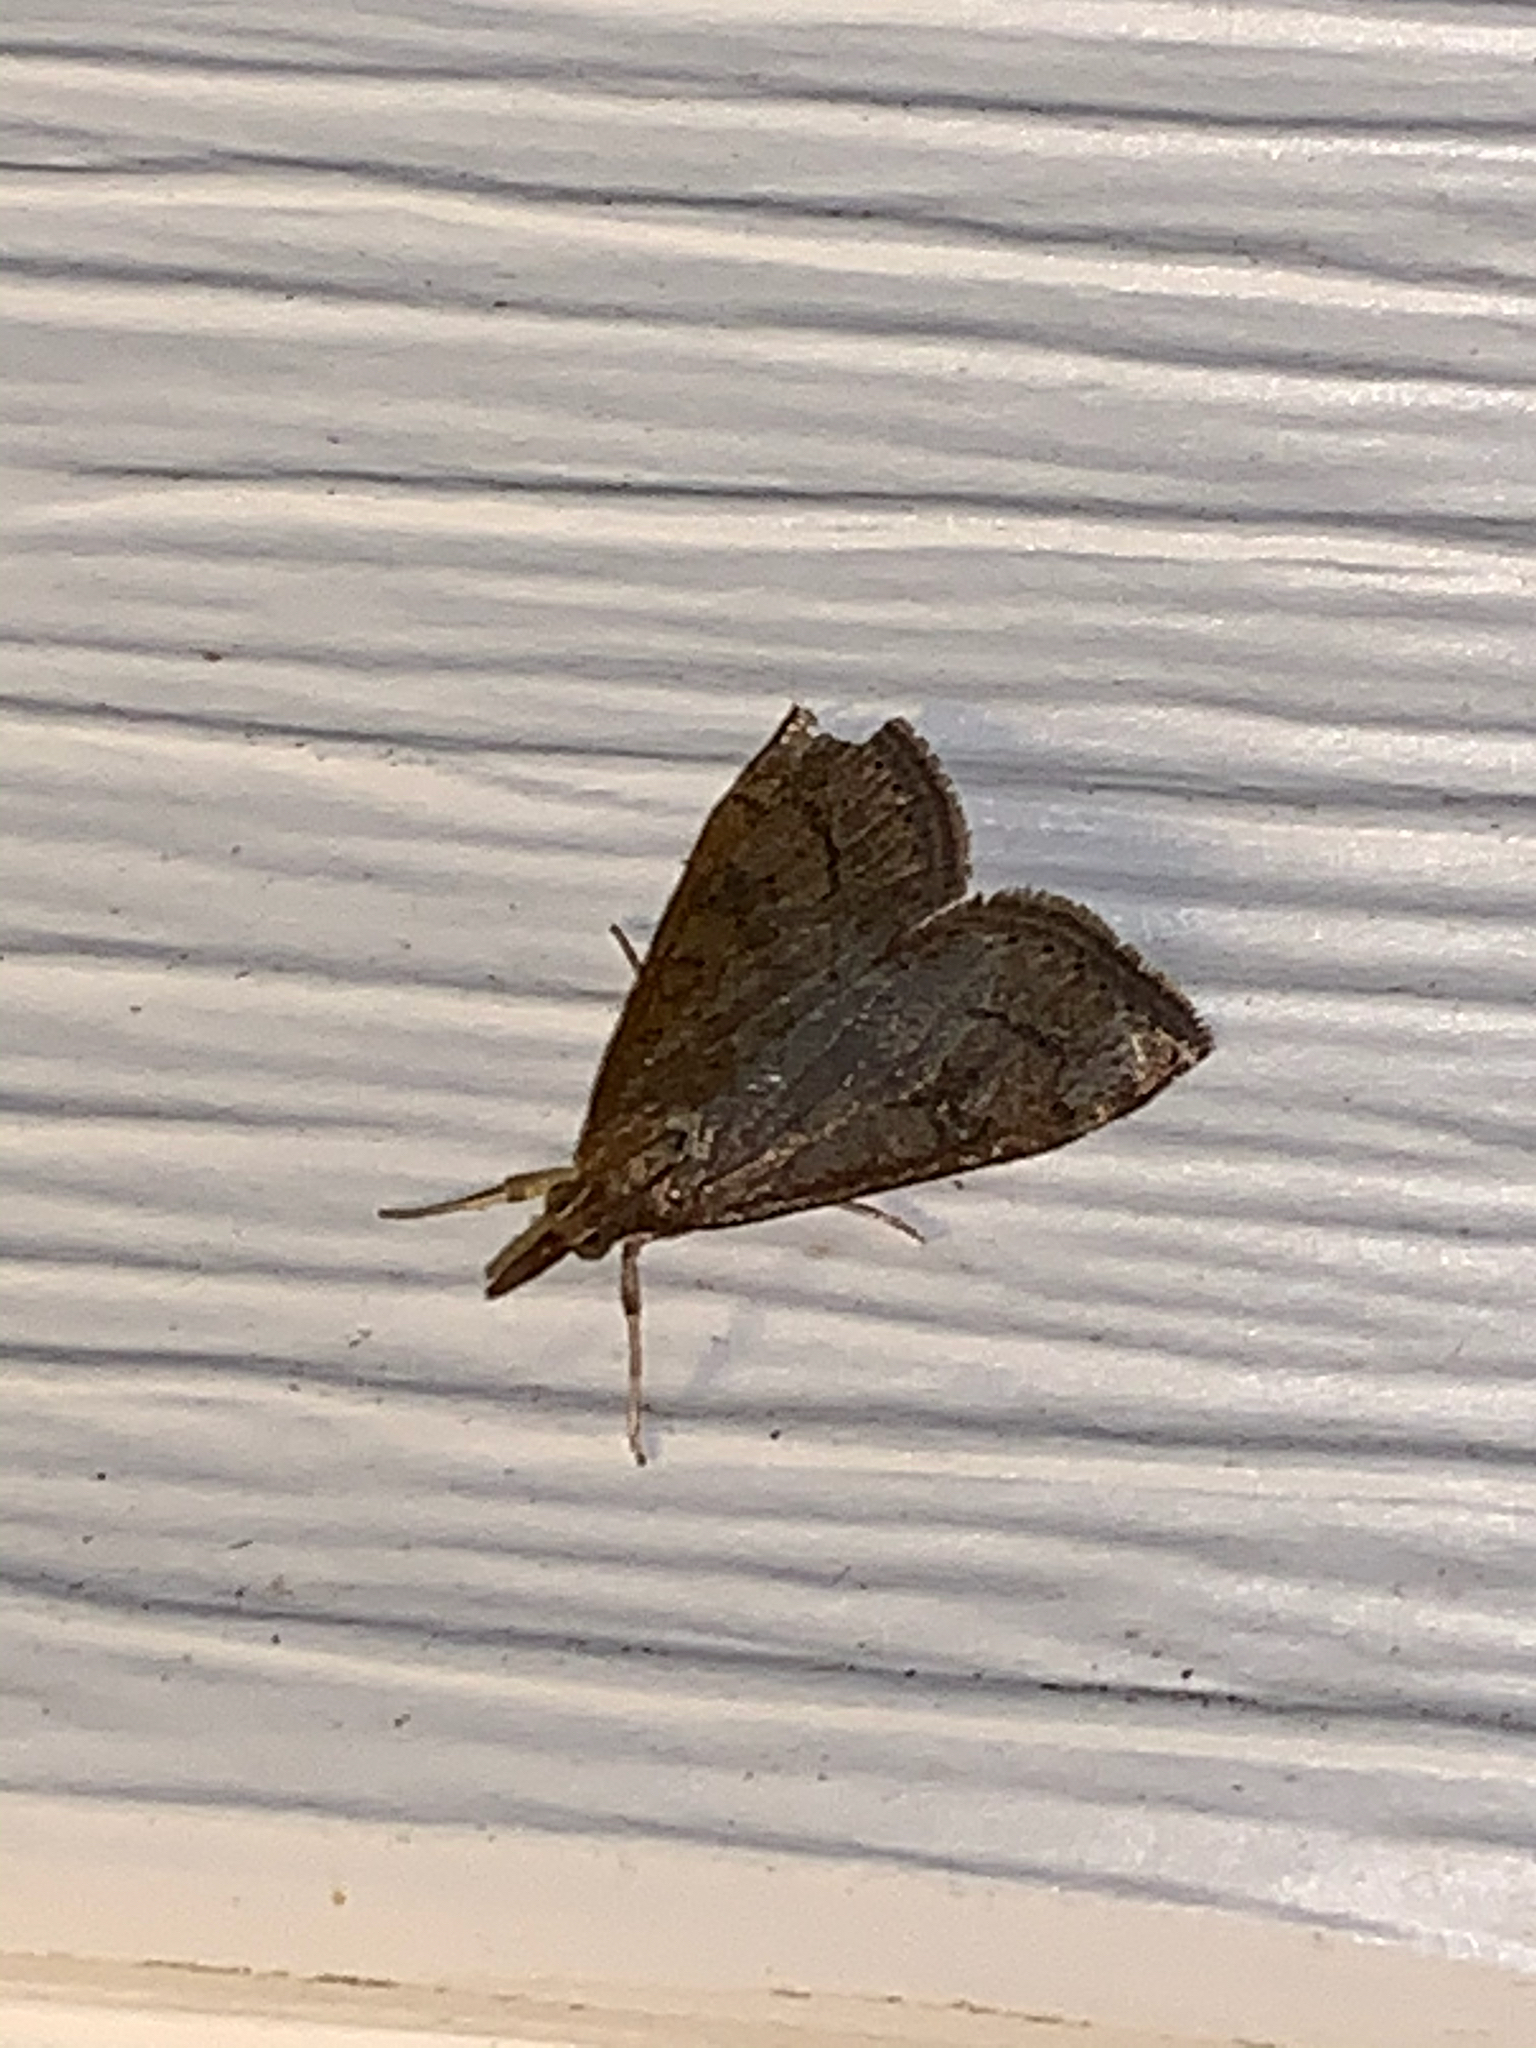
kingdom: Animalia
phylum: Arthropoda
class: Insecta
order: Lepidoptera
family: Crambidae
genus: Udea
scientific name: Udea rubigalis
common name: Celery leaftier moth
